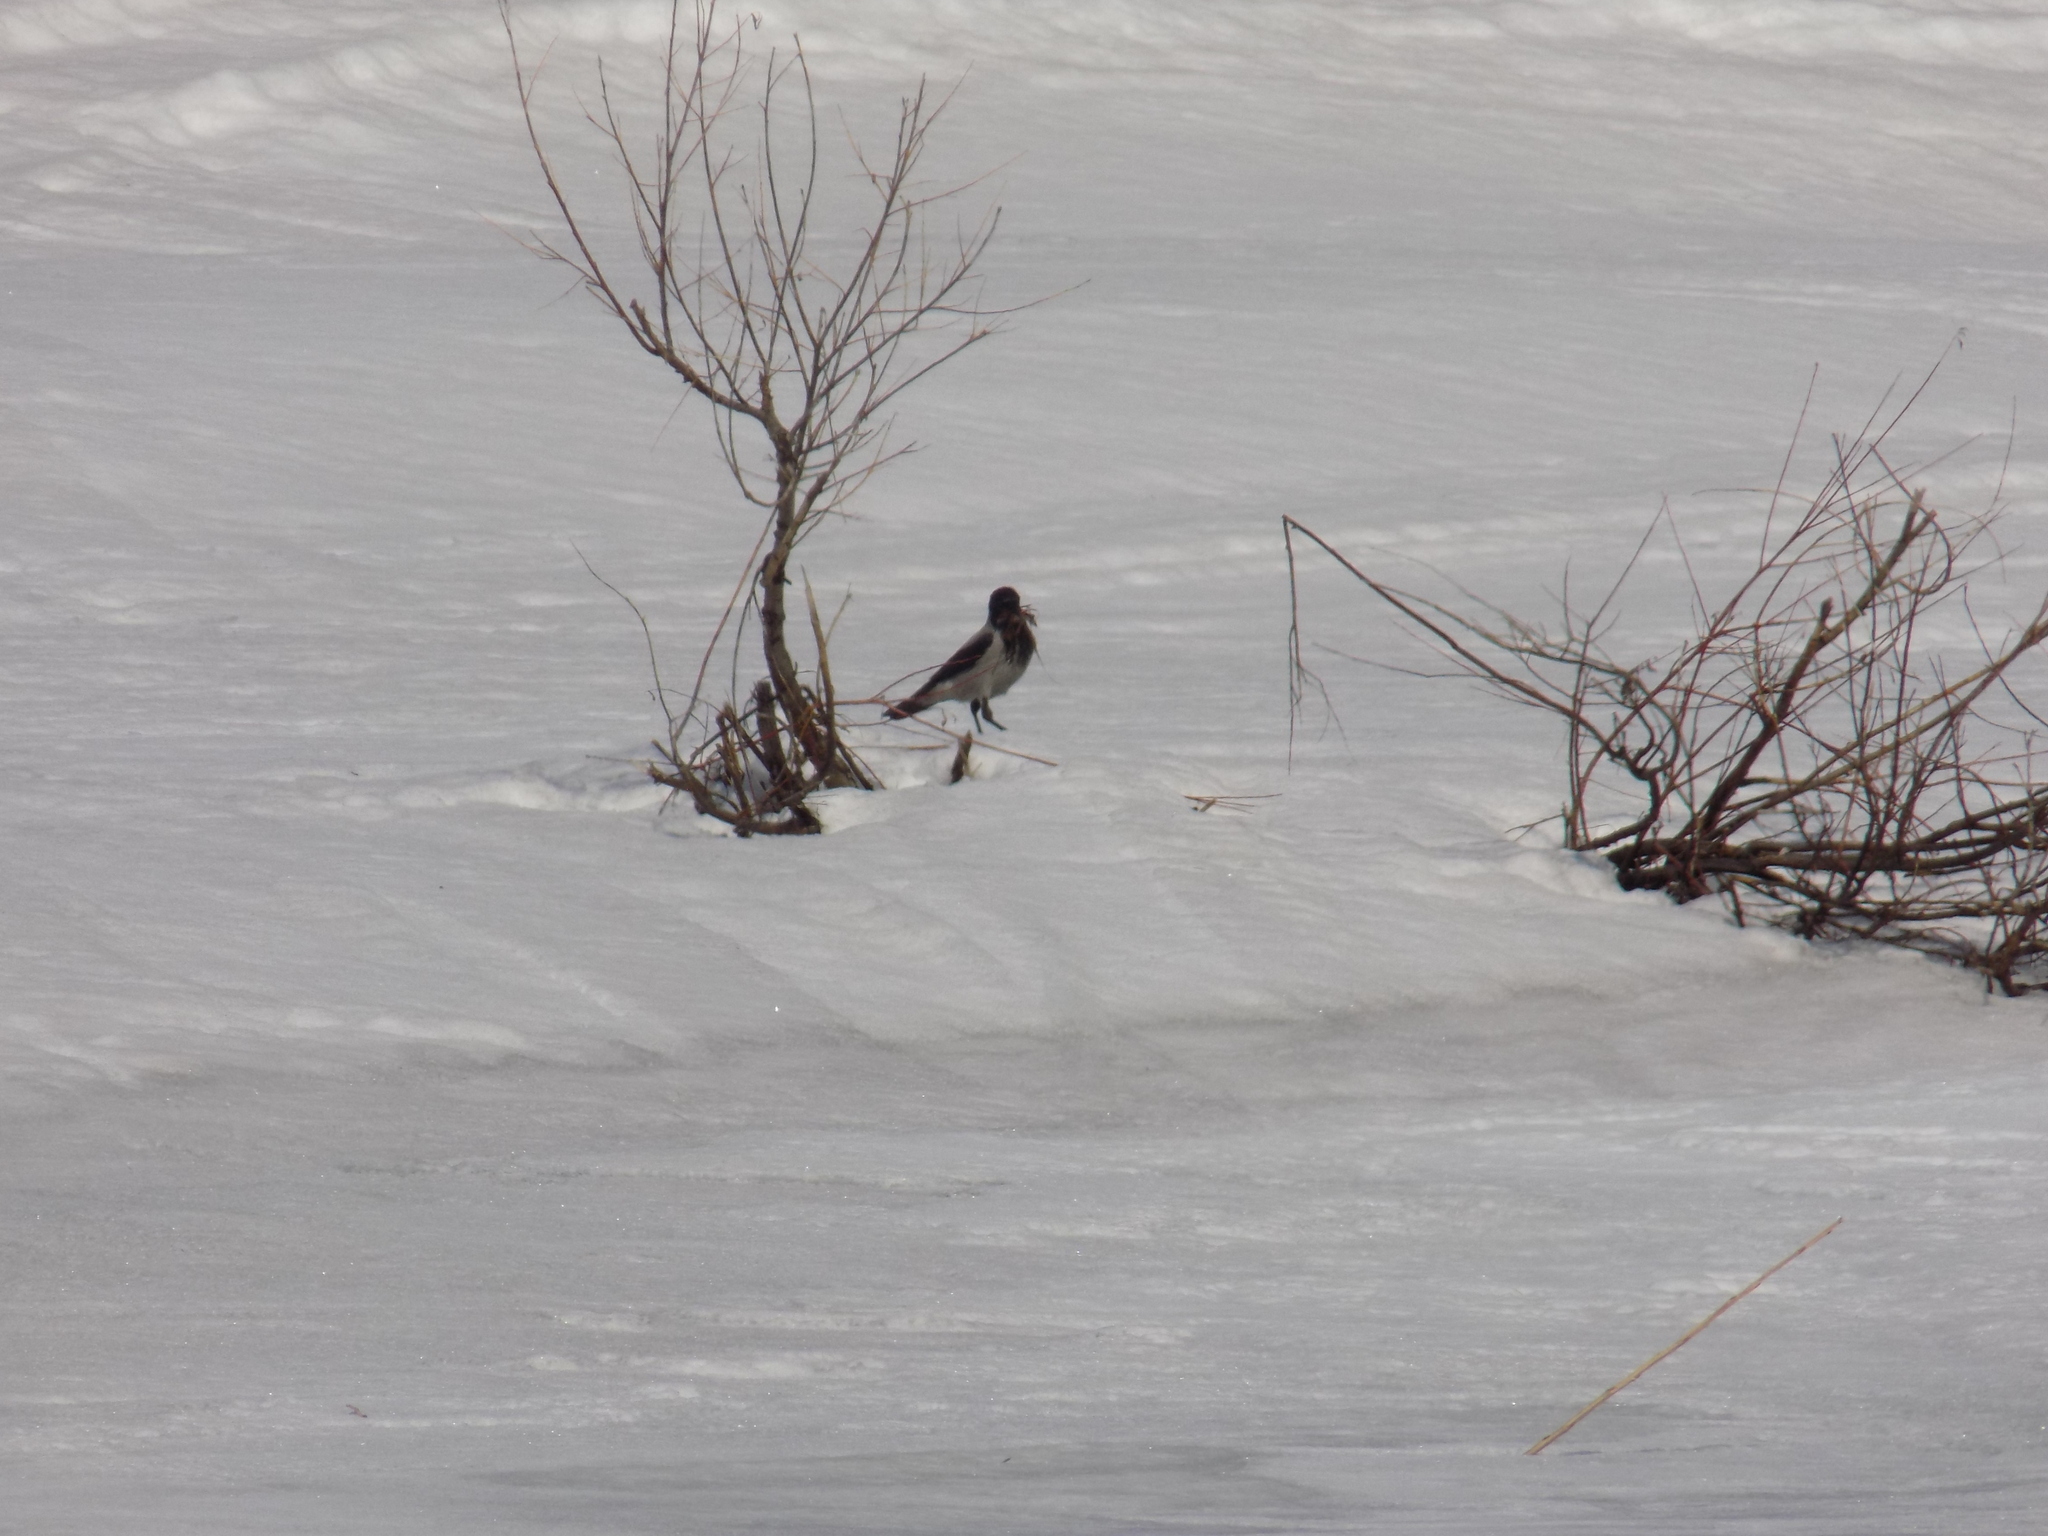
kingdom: Animalia
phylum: Chordata
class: Aves
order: Passeriformes
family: Corvidae
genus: Corvus
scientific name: Corvus cornix
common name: Hooded crow
